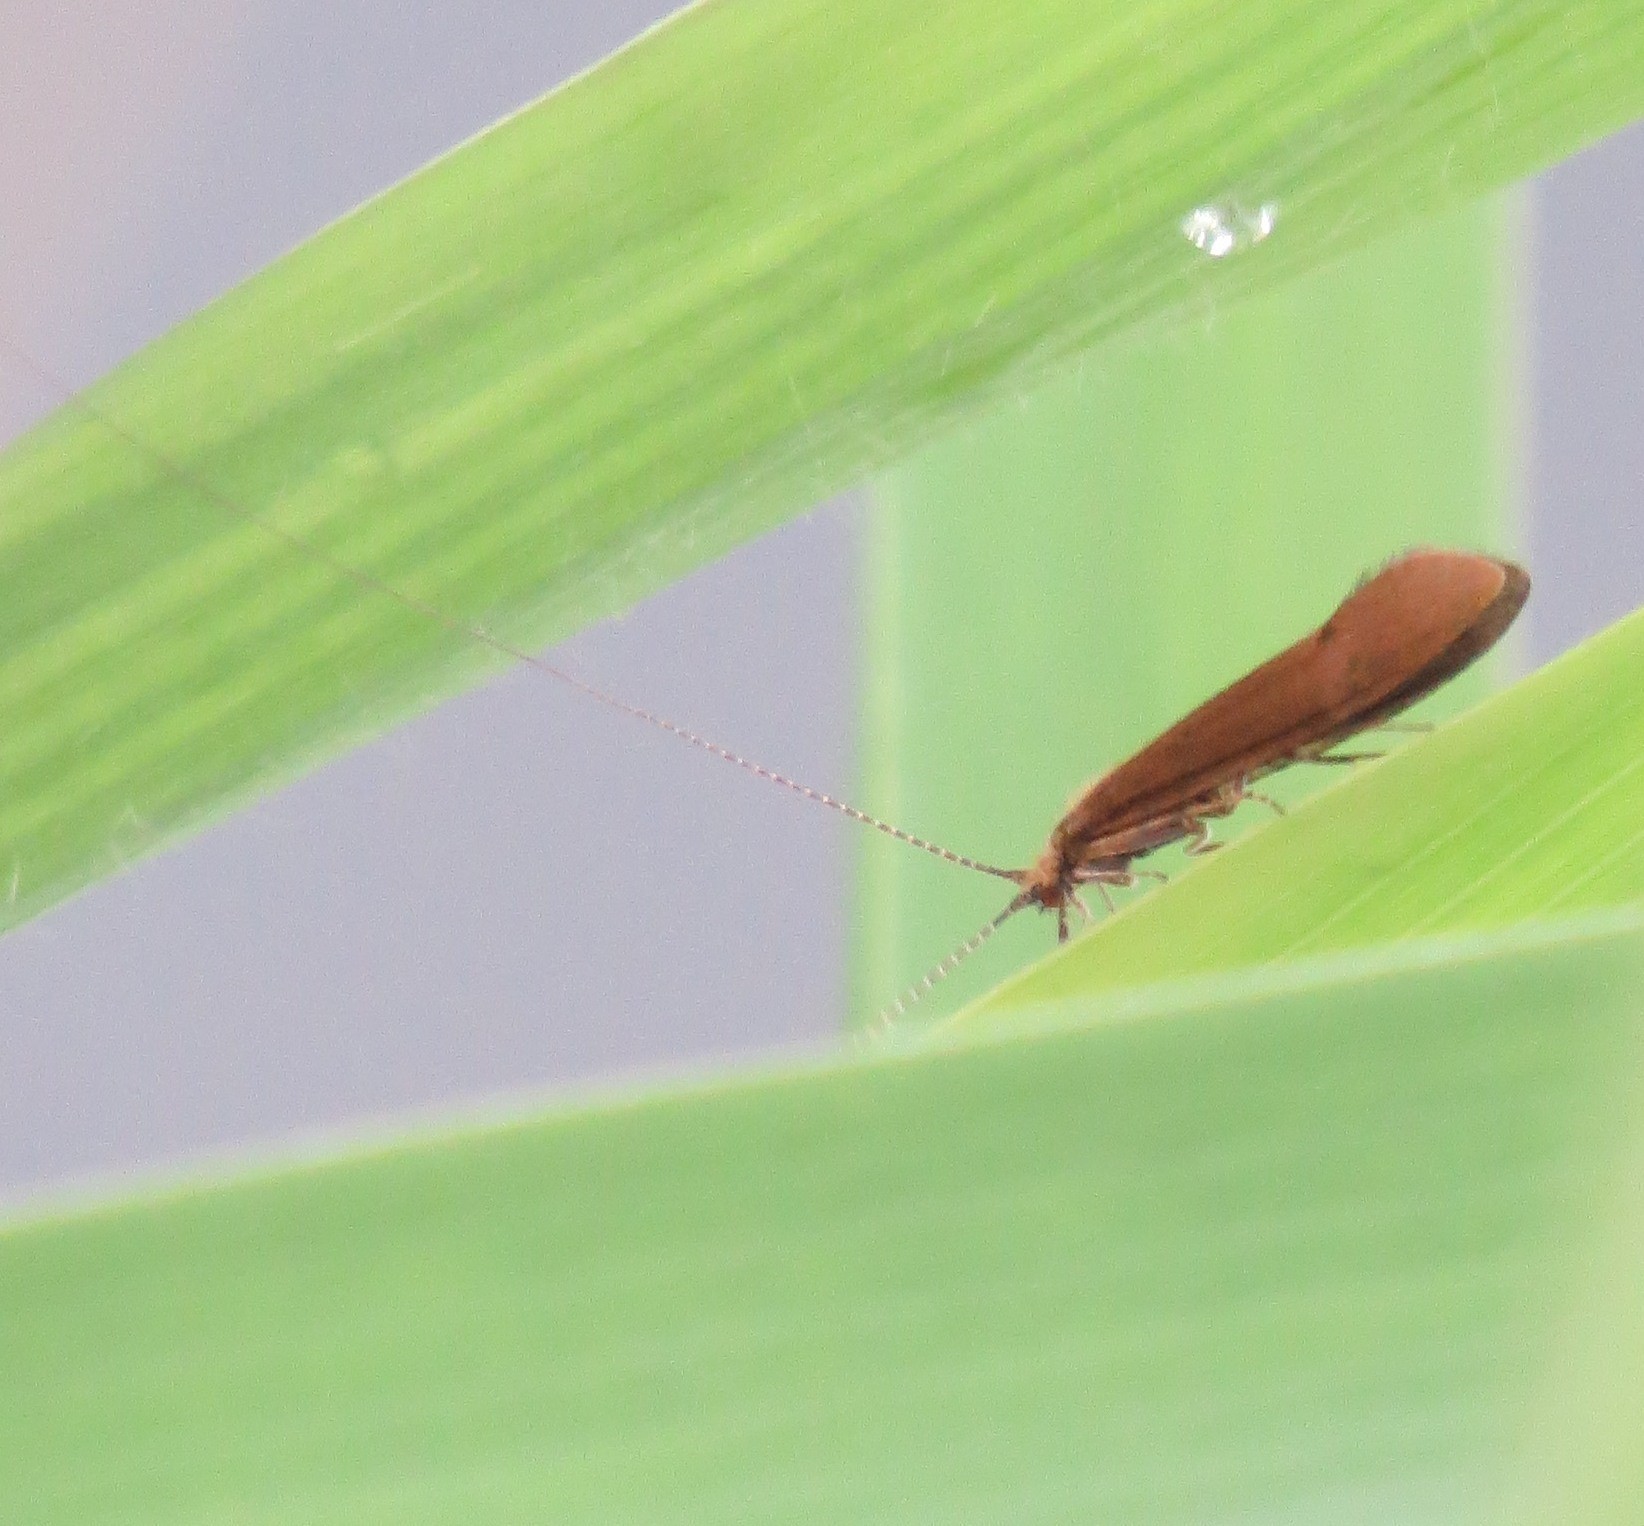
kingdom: Animalia
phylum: Arthropoda
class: Insecta
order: Trichoptera
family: Leptoceridae
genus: Triaenodes
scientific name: Triaenodes bicolor
